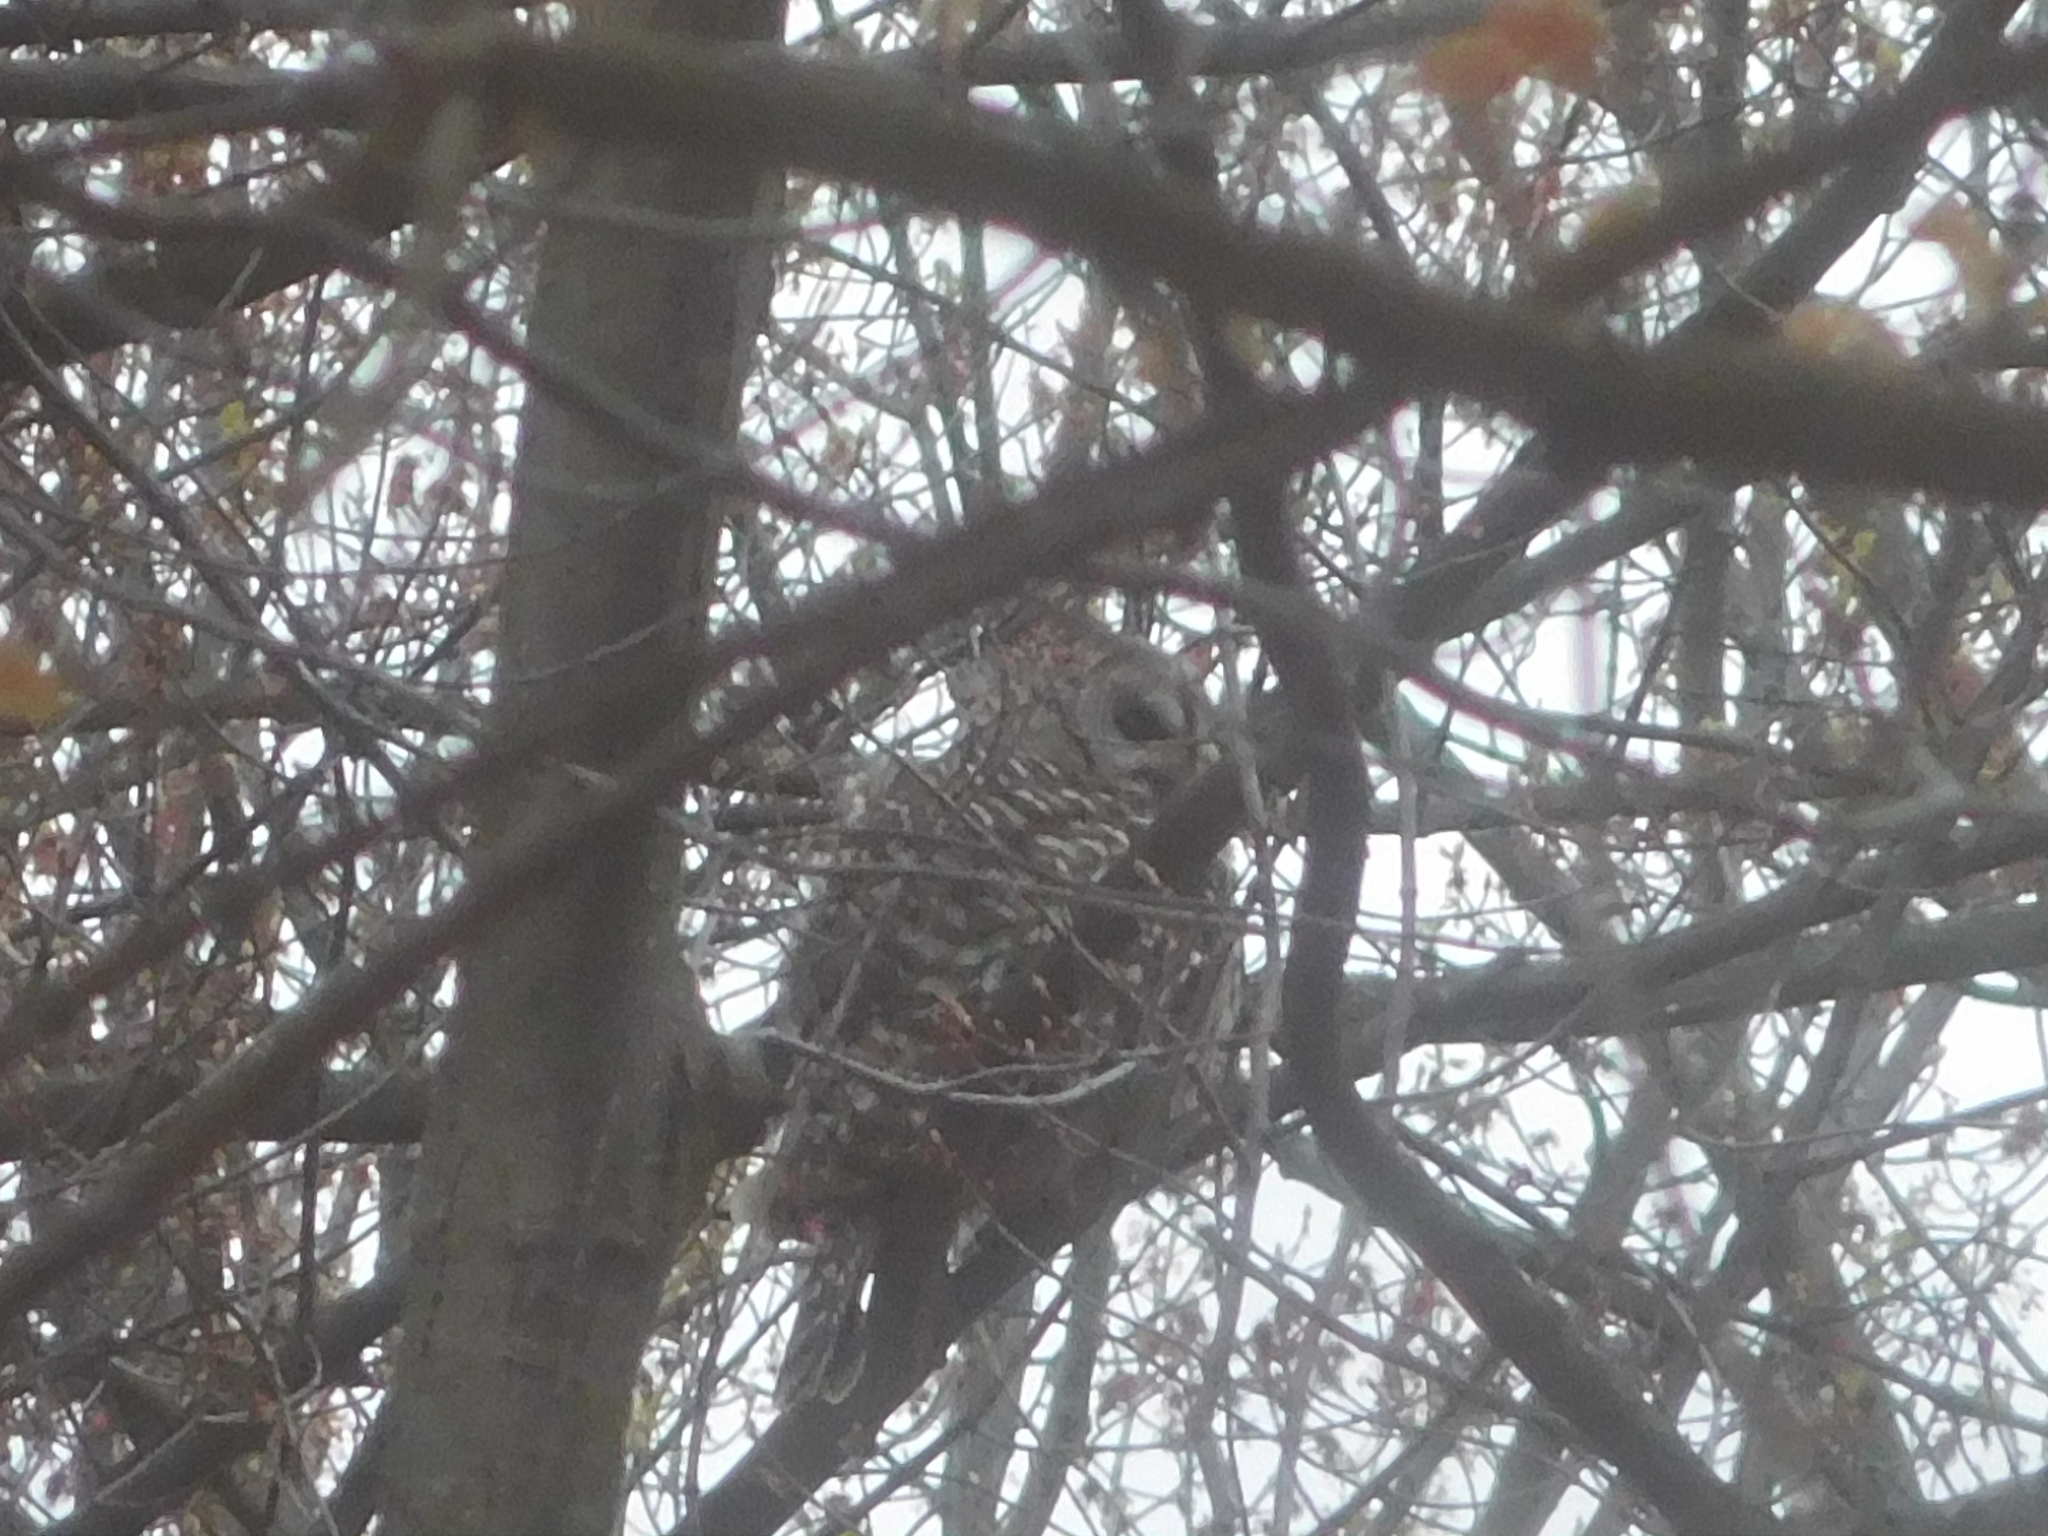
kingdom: Animalia
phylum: Chordata
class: Aves
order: Strigiformes
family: Strigidae
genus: Strix
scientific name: Strix varia
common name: Barred owl
